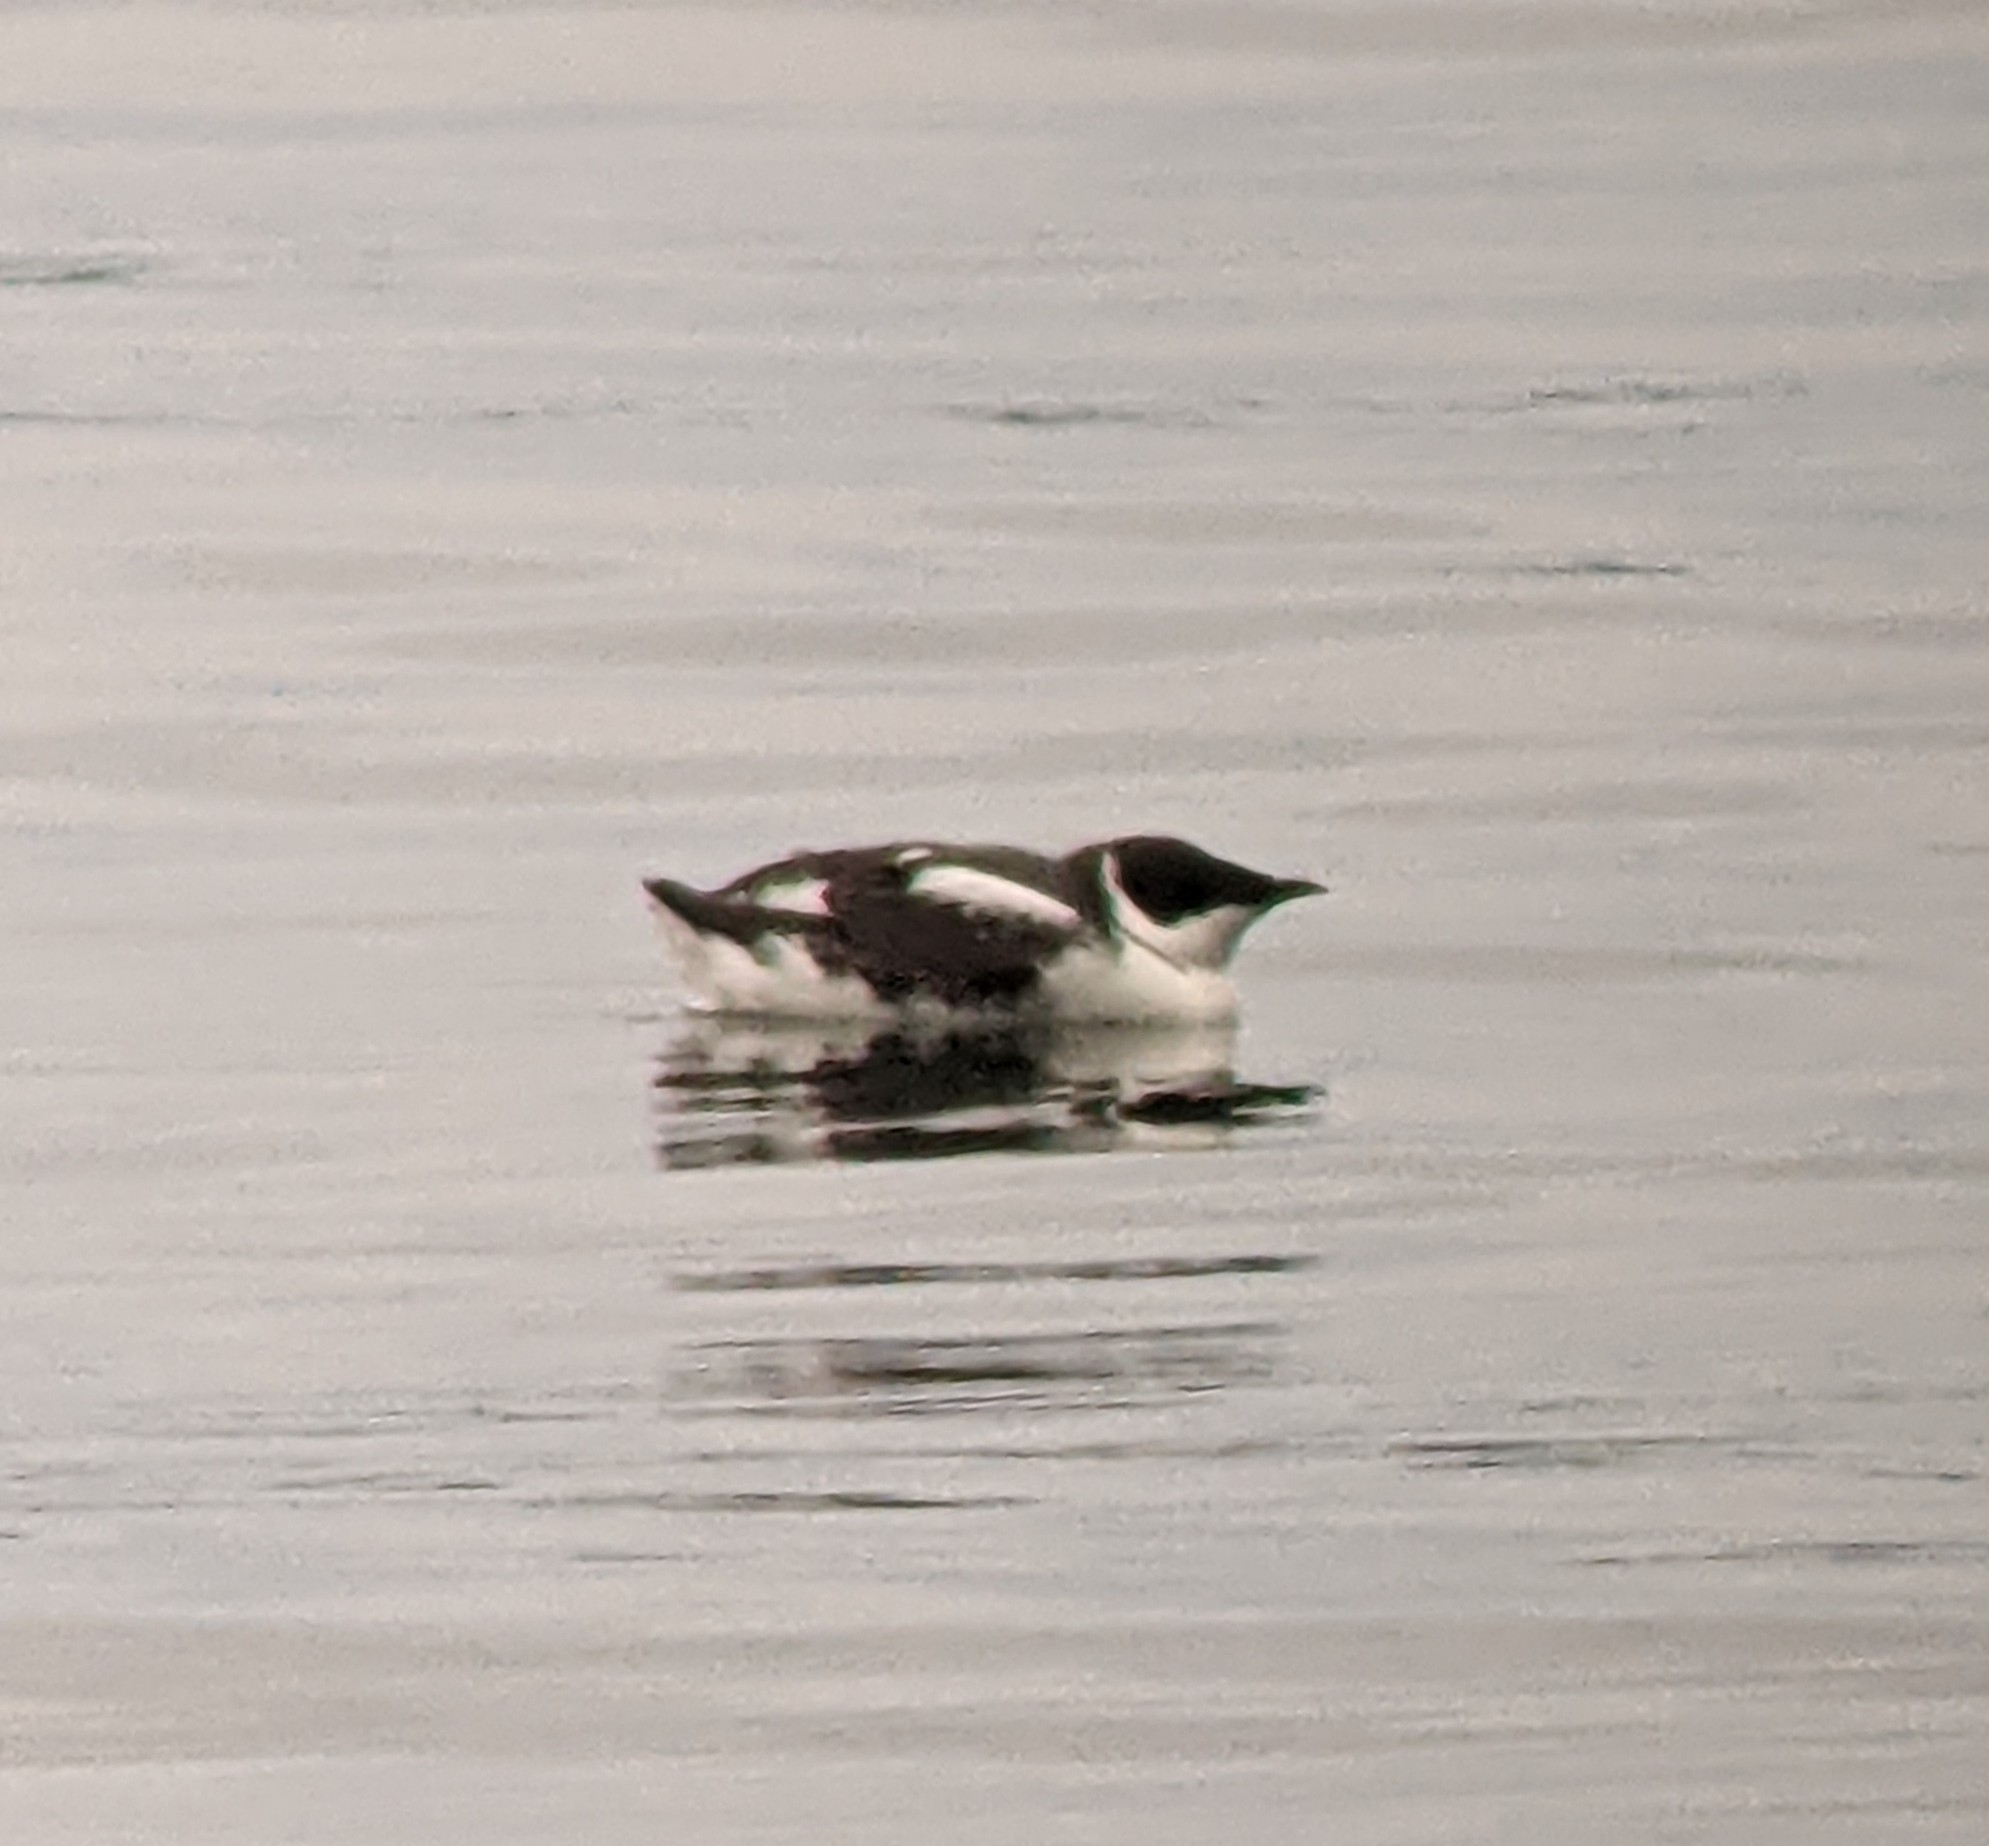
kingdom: Animalia
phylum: Chordata
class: Aves
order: Charadriiformes
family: Alcidae
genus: Brachyramphus
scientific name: Brachyramphus marmoratus
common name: Marbled murrelet
